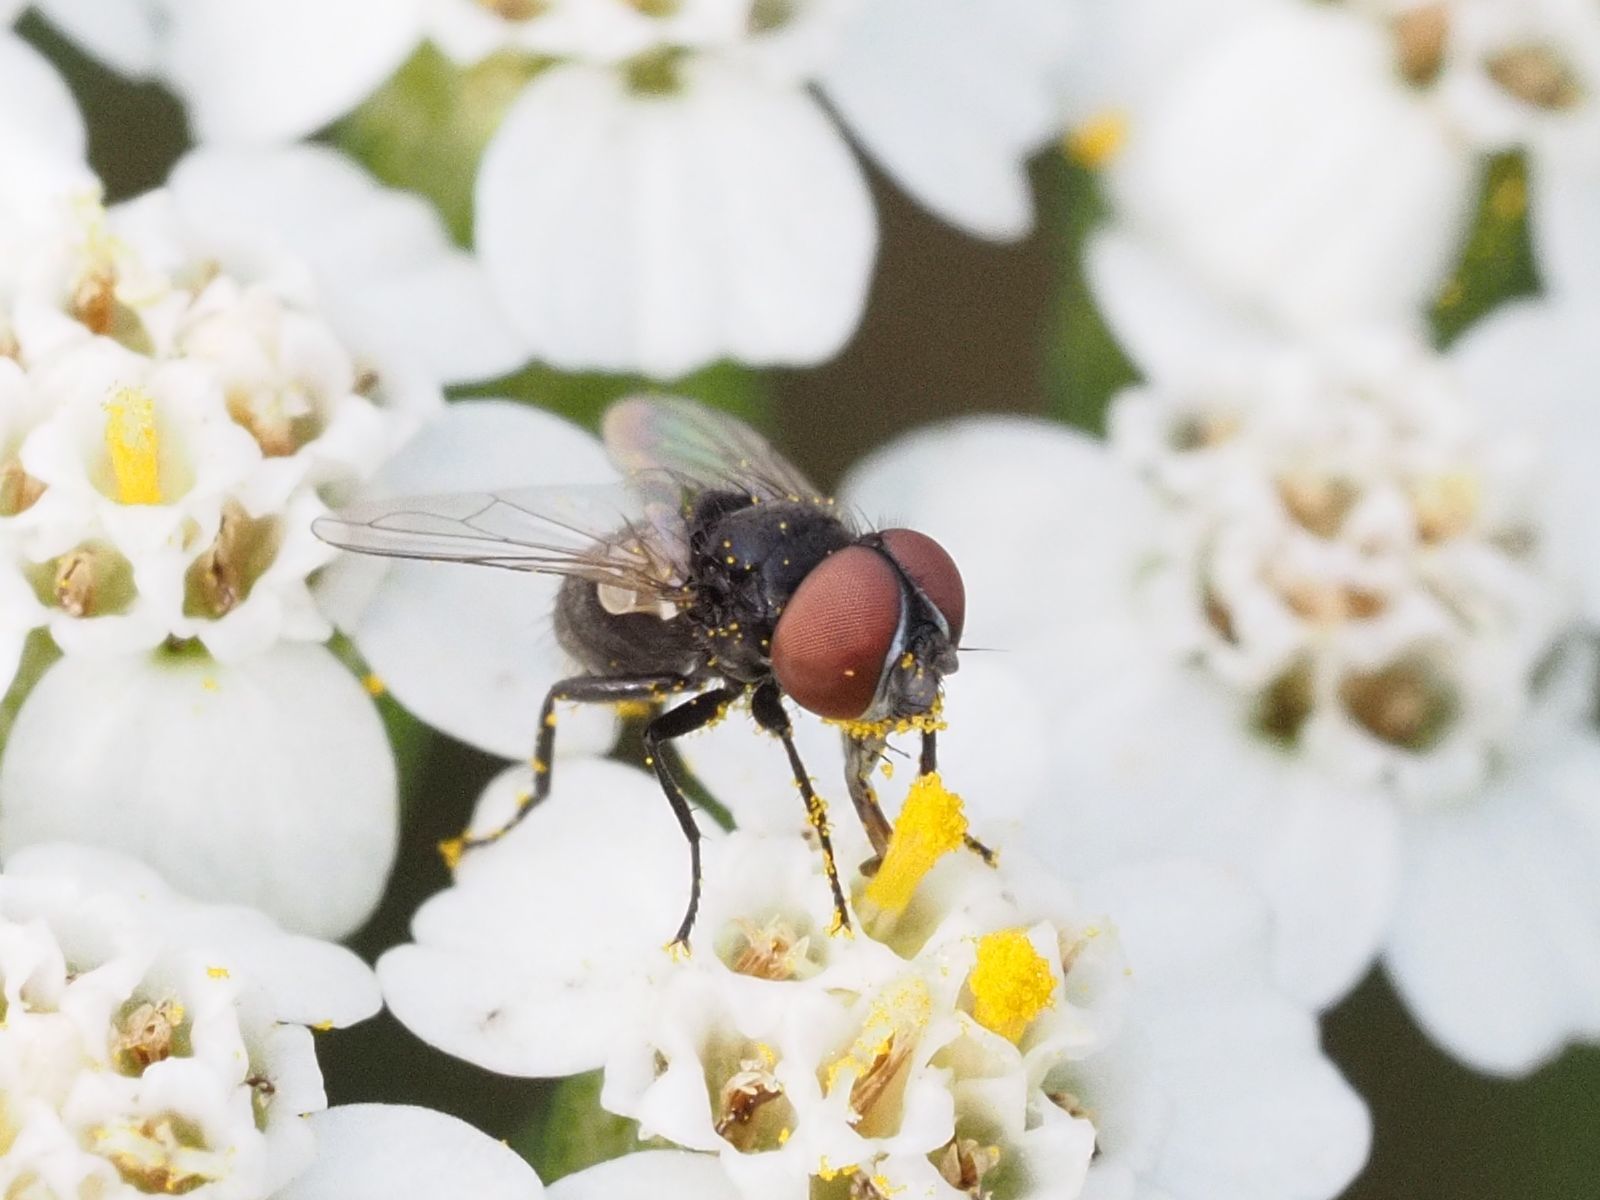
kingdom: Animalia
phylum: Arthropoda
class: Insecta
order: Diptera
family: Tachinidae
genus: Phasia
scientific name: Phasia pusilla
